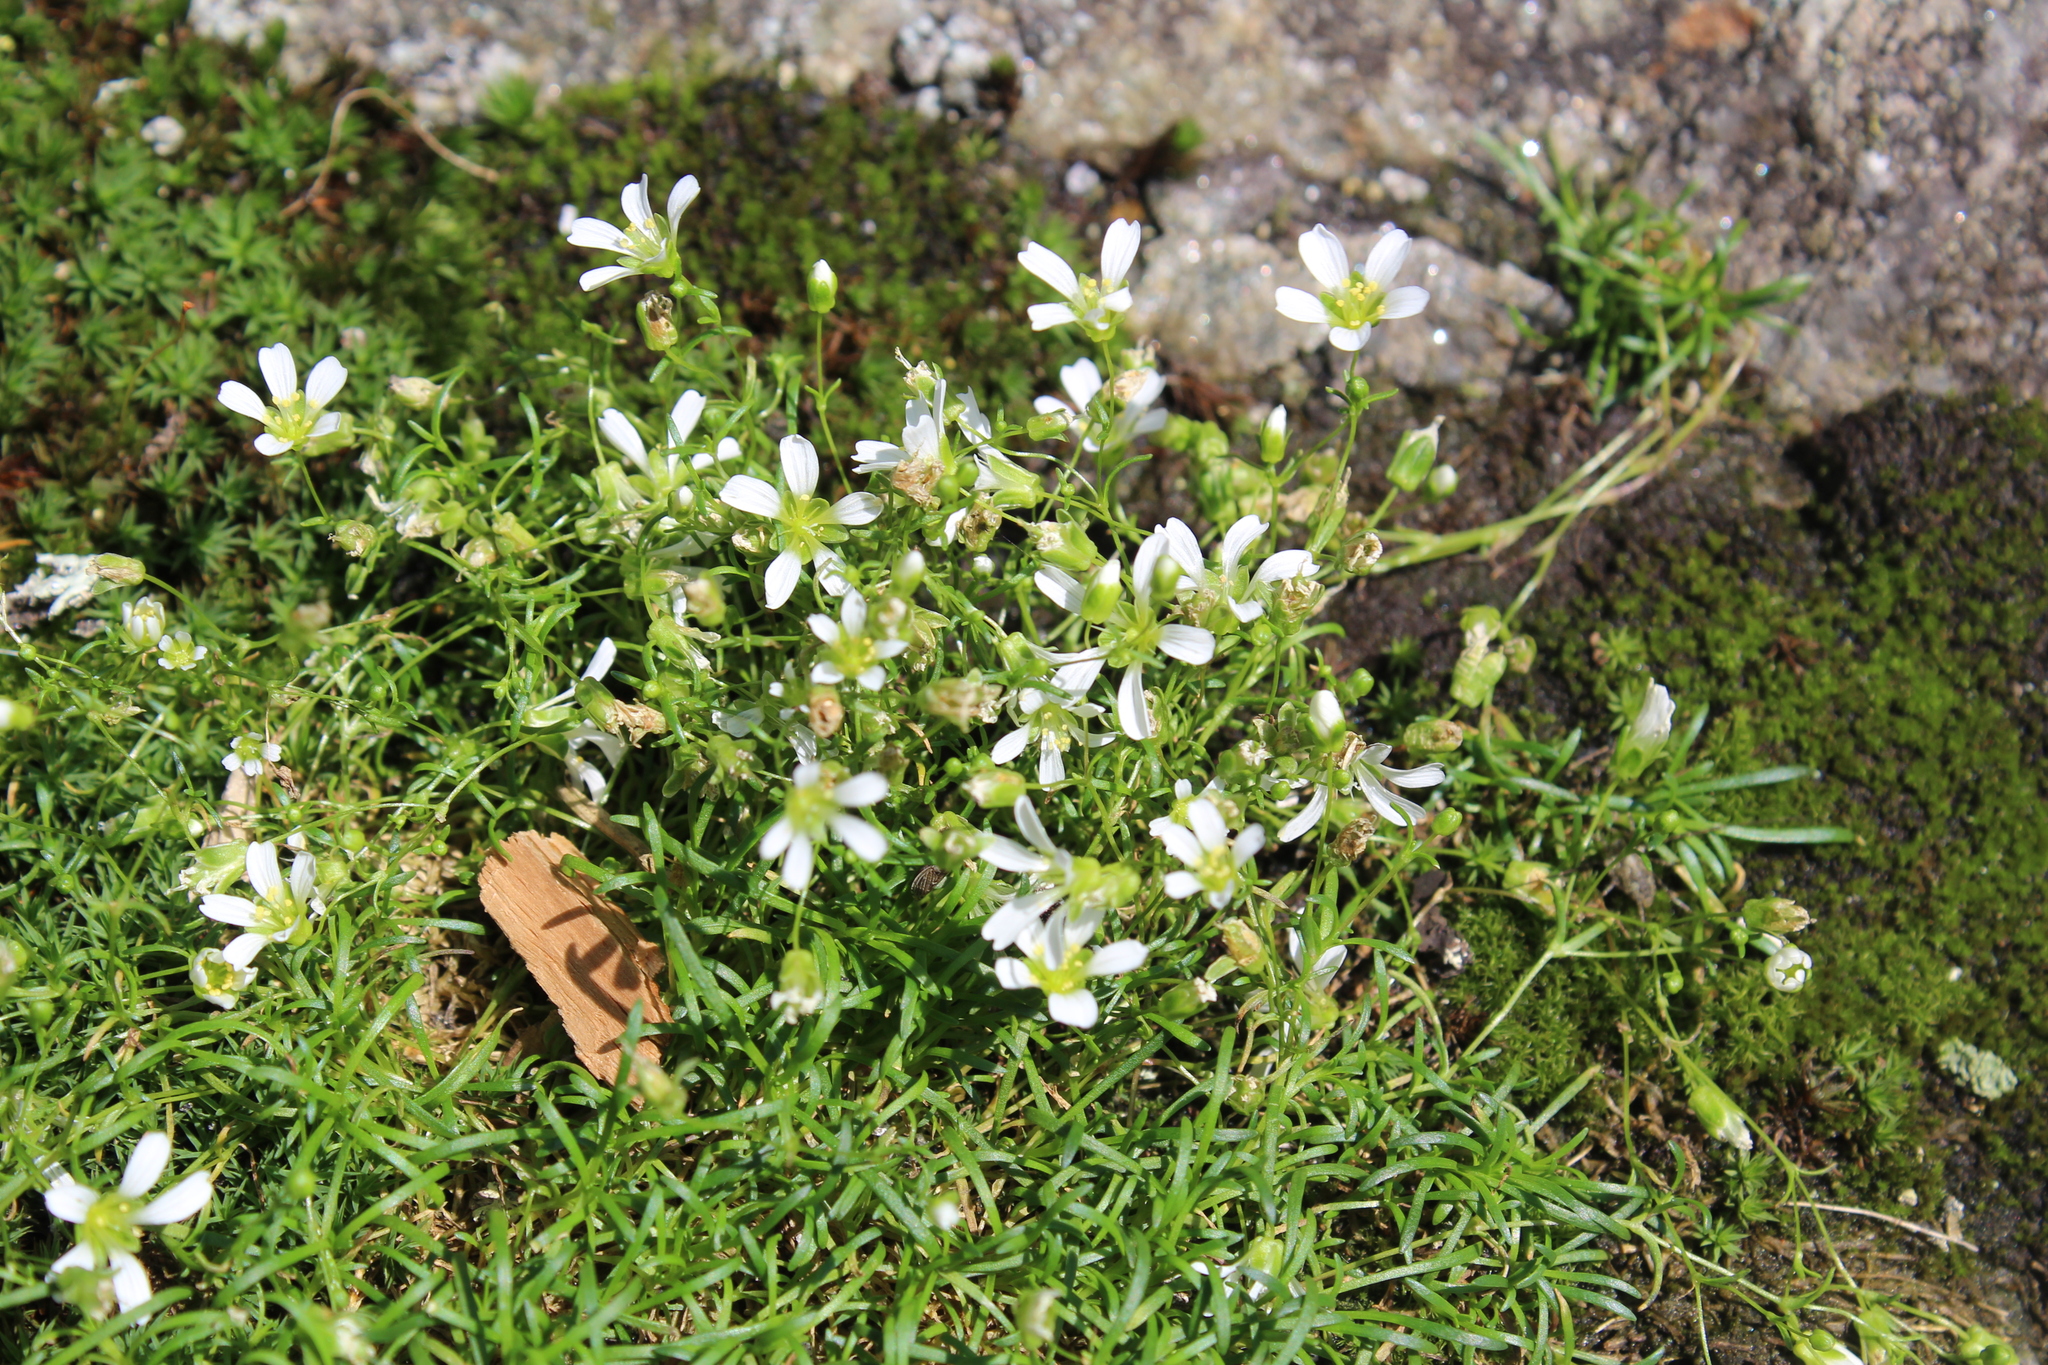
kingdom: Plantae
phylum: Tracheophyta
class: Magnoliopsida
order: Caryophyllales
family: Caryophyllaceae
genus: Geocarpon
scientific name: Geocarpon groenlandicum
